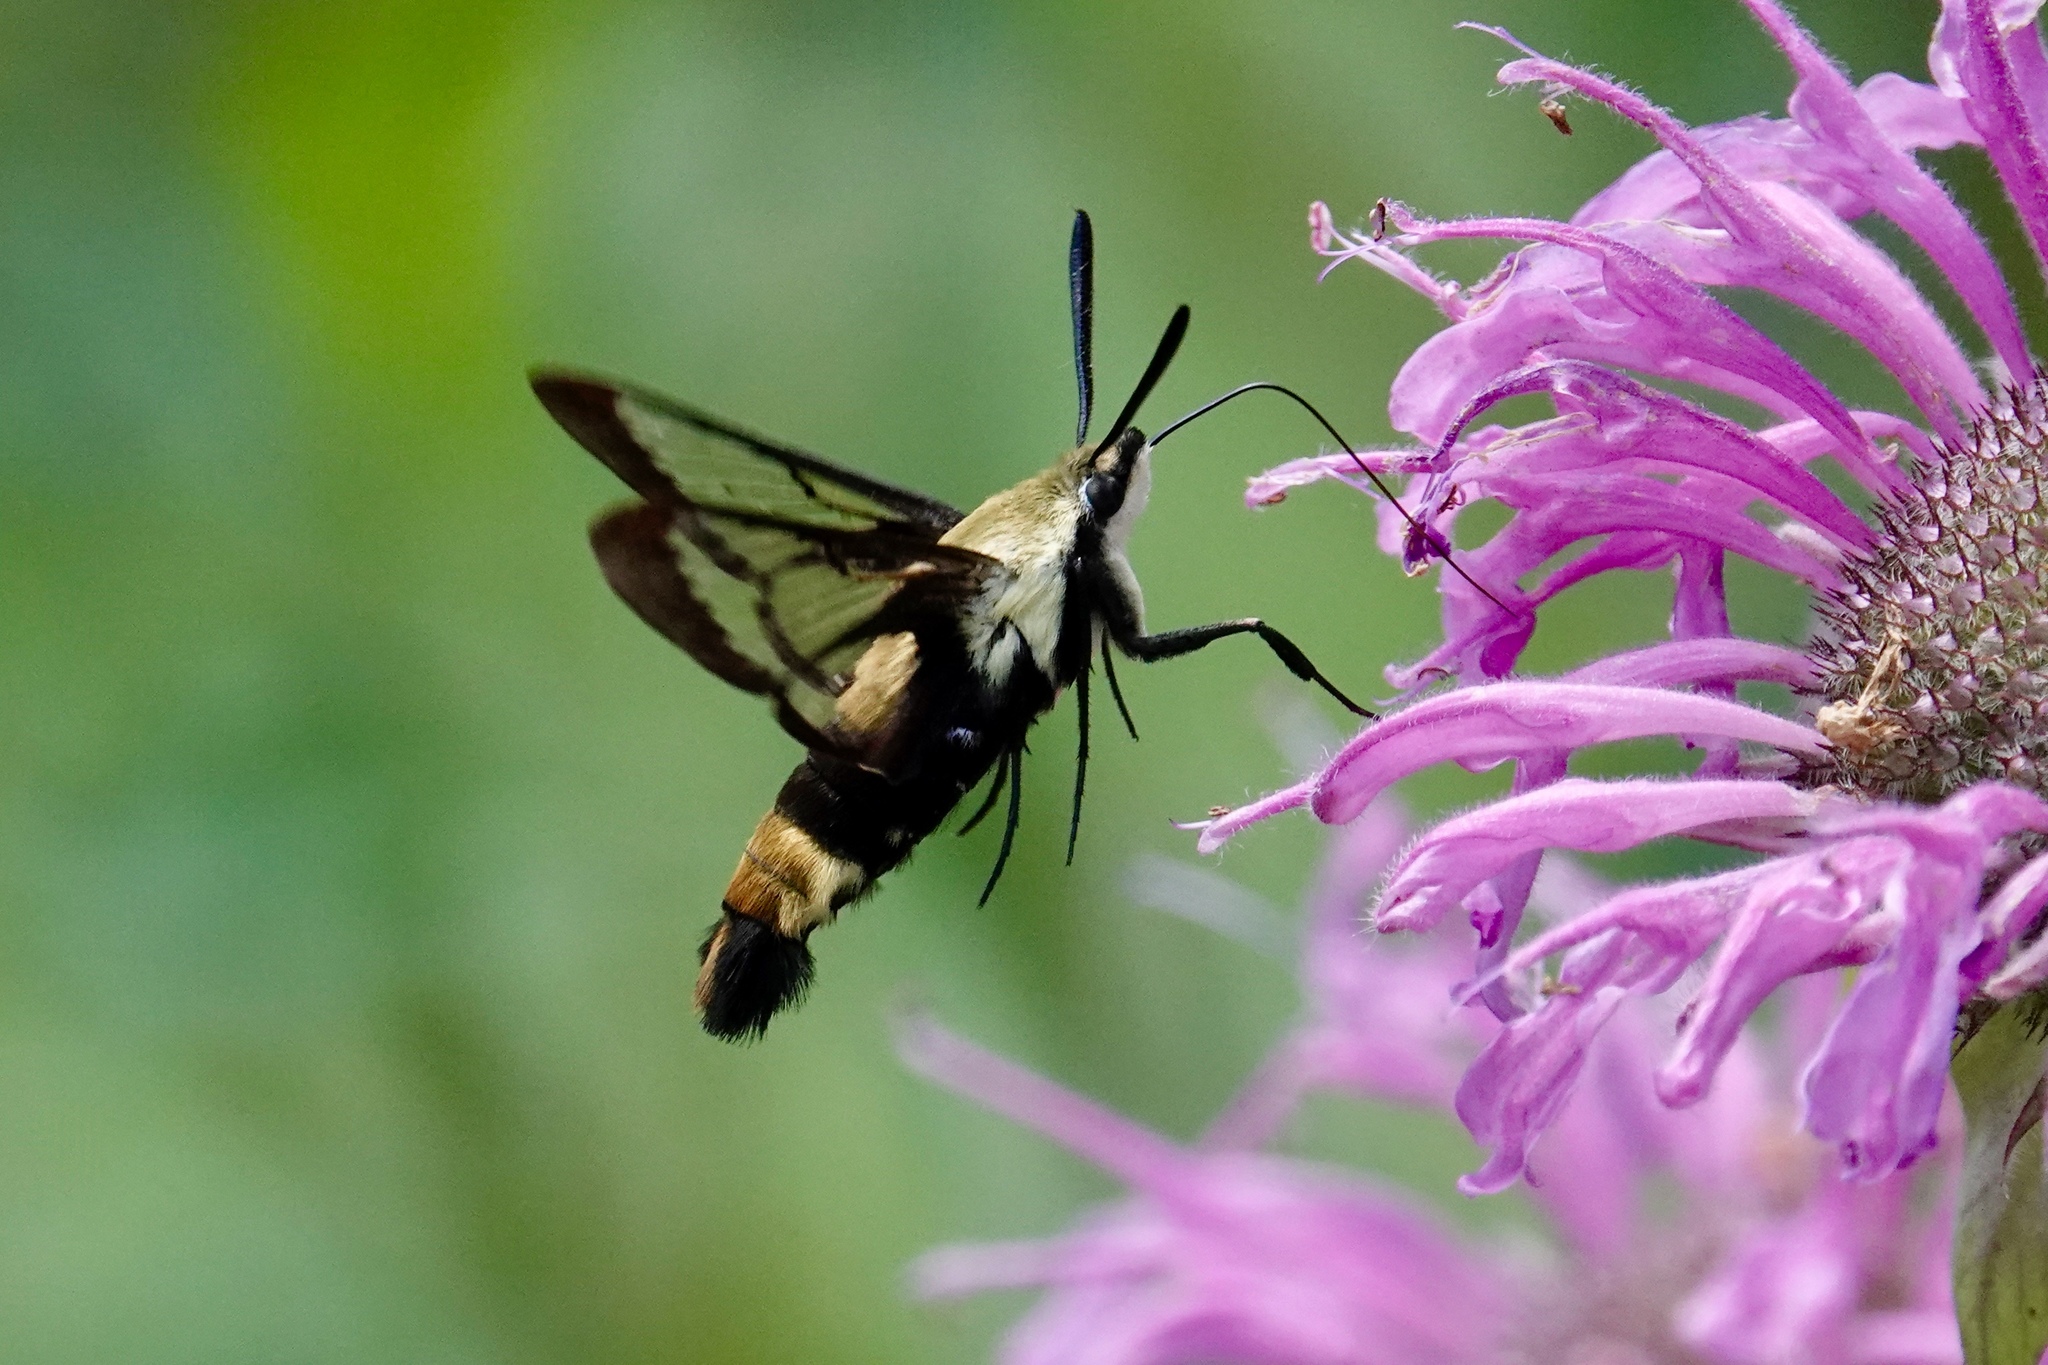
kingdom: Animalia
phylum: Arthropoda
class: Insecta
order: Lepidoptera
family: Sphingidae
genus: Hemaris
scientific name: Hemaris diffinis
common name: Bumblebee moth
